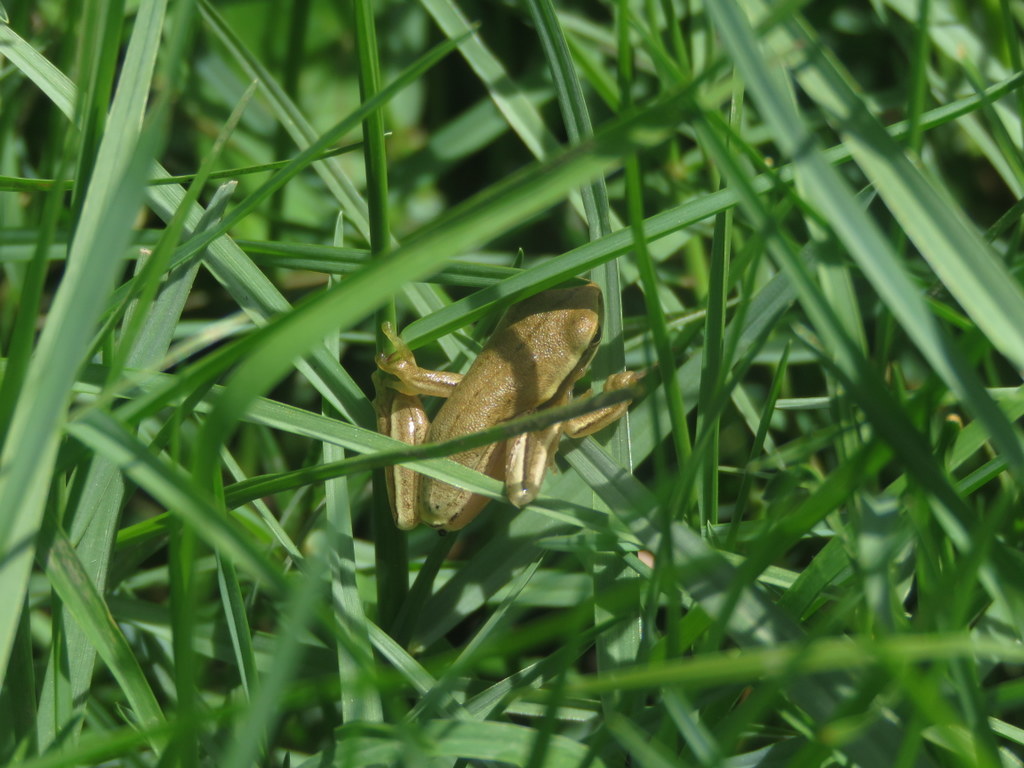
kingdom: Animalia
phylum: Chordata
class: Amphibia
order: Anura
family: Hylidae
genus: Boana
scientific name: Boana pulchella
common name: Montevideo treefrog
